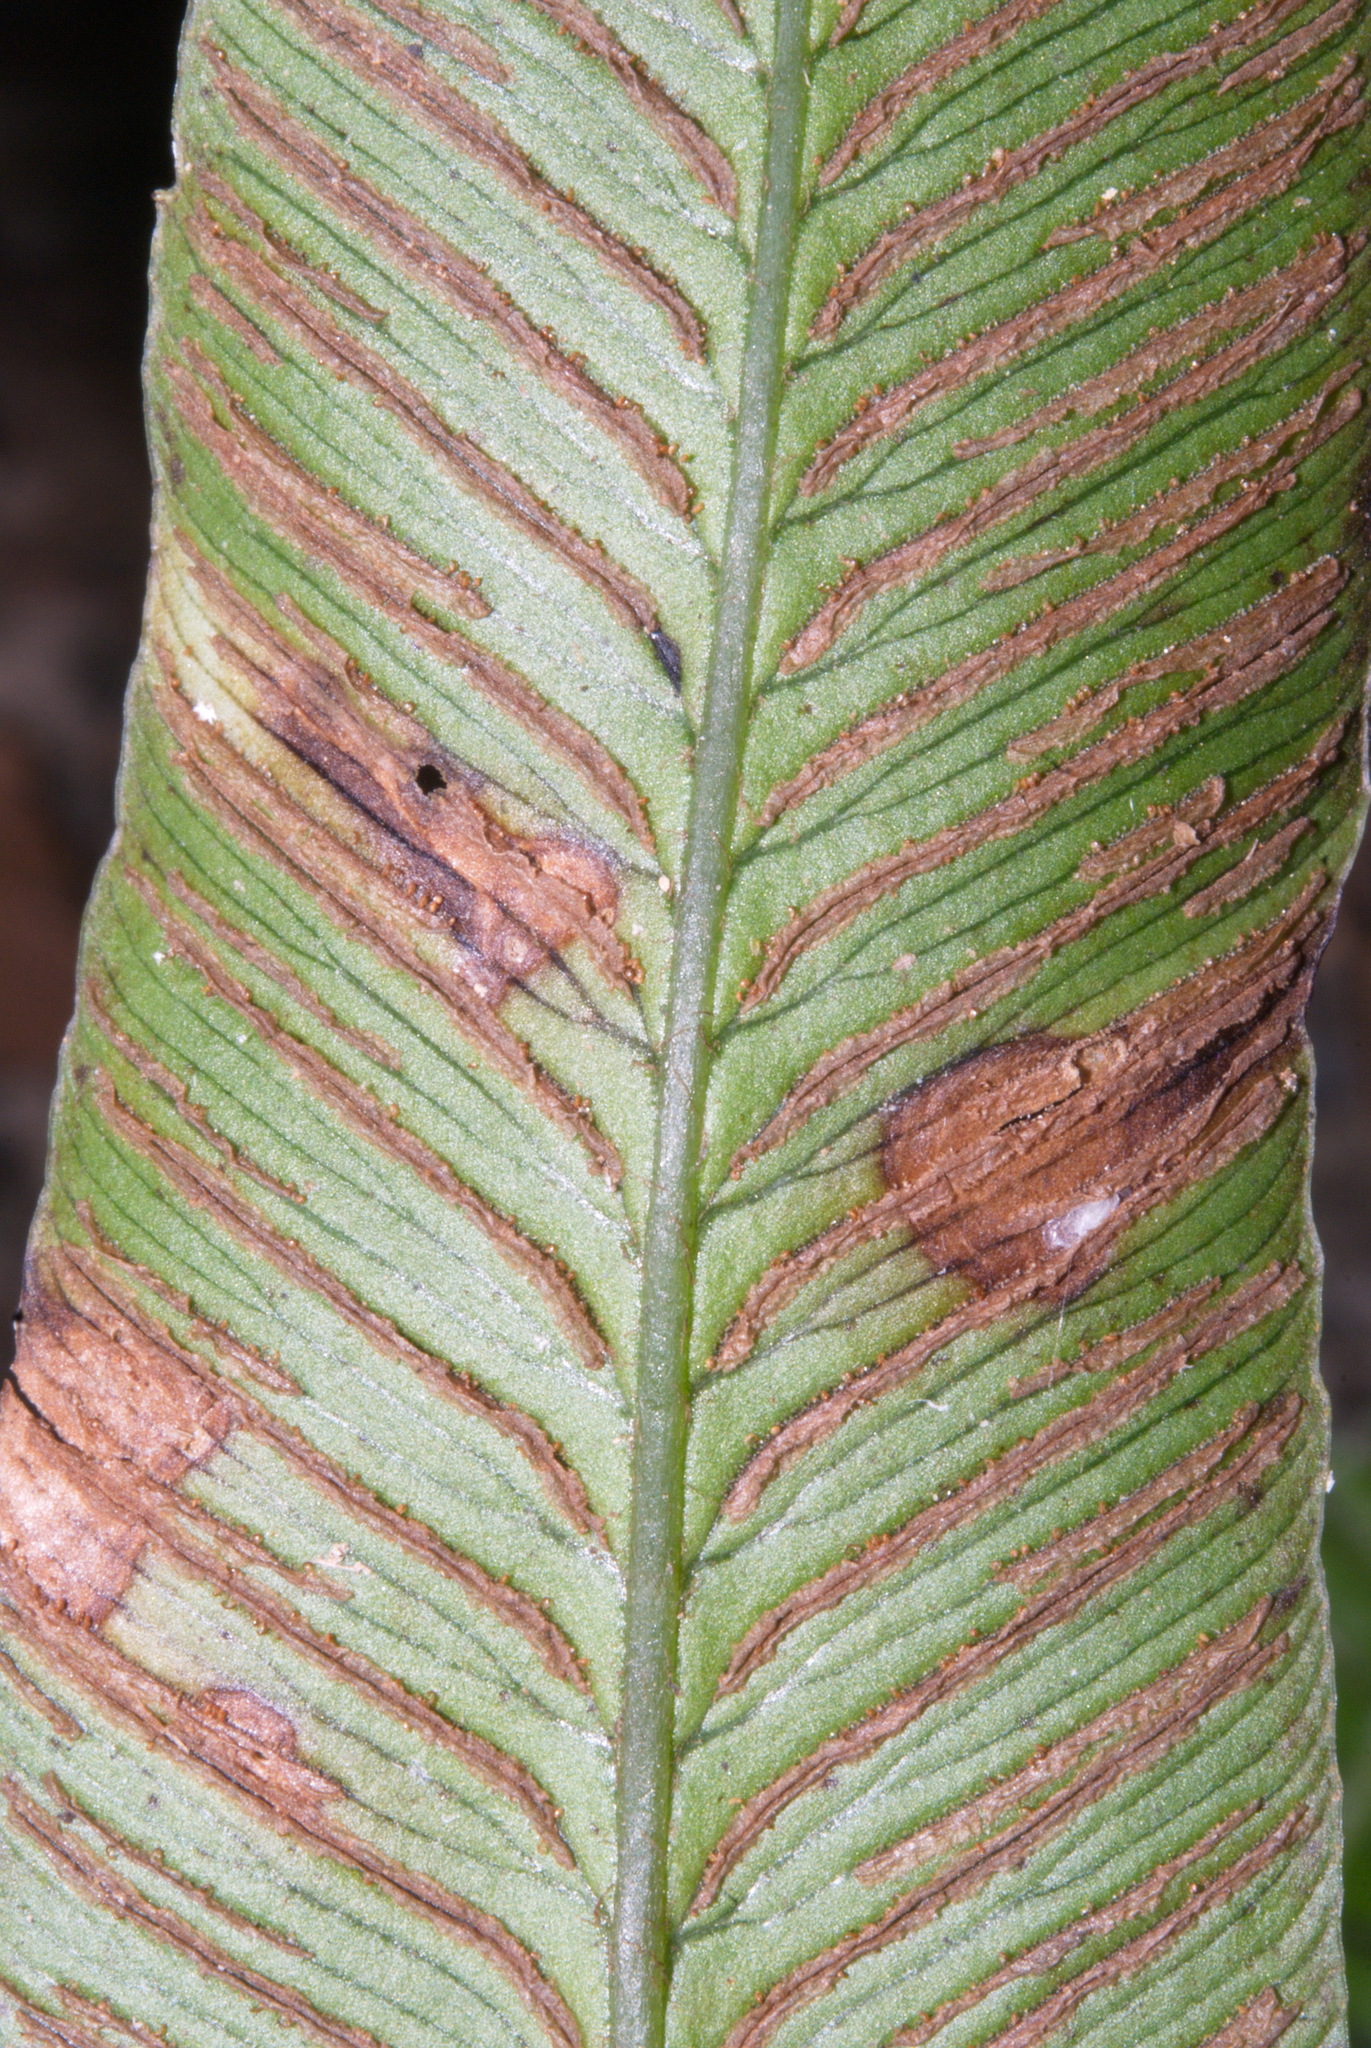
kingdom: Plantae
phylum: Tracheophyta
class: Polypodiopsida
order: Polypodiales
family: Athyriaceae
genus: Diplazium
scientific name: Diplazium lineolatum
